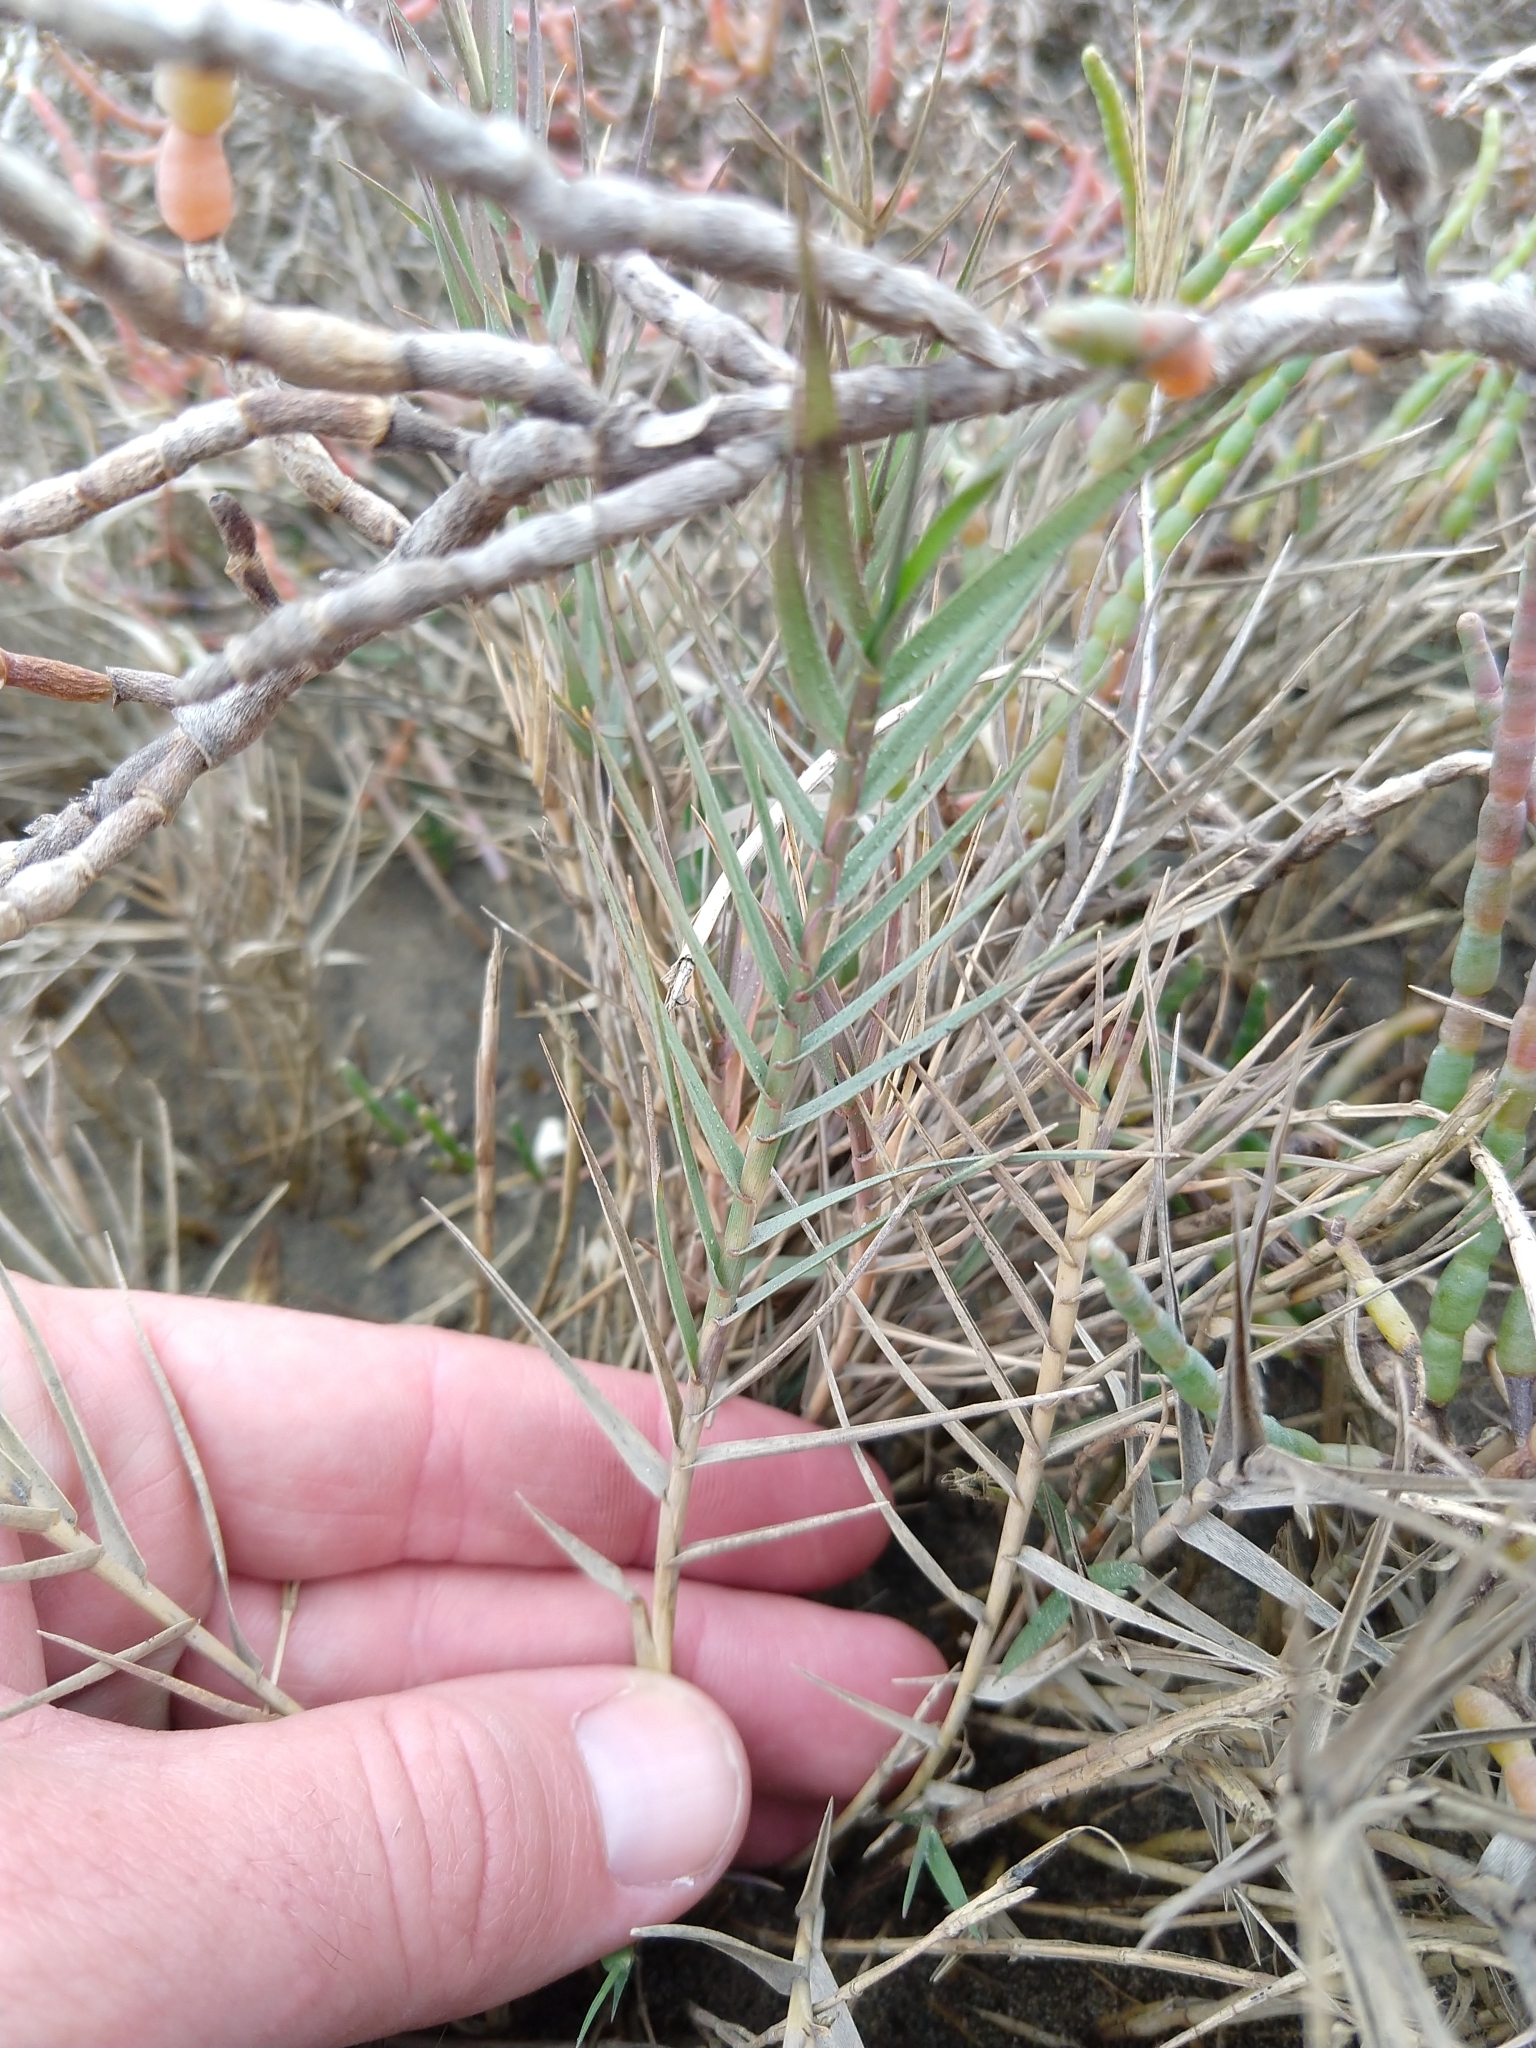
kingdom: Plantae
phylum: Tracheophyta
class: Liliopsida
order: Poales
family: Poaceae
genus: Distichlis
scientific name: Distichlis spicata
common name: Saltgrass
